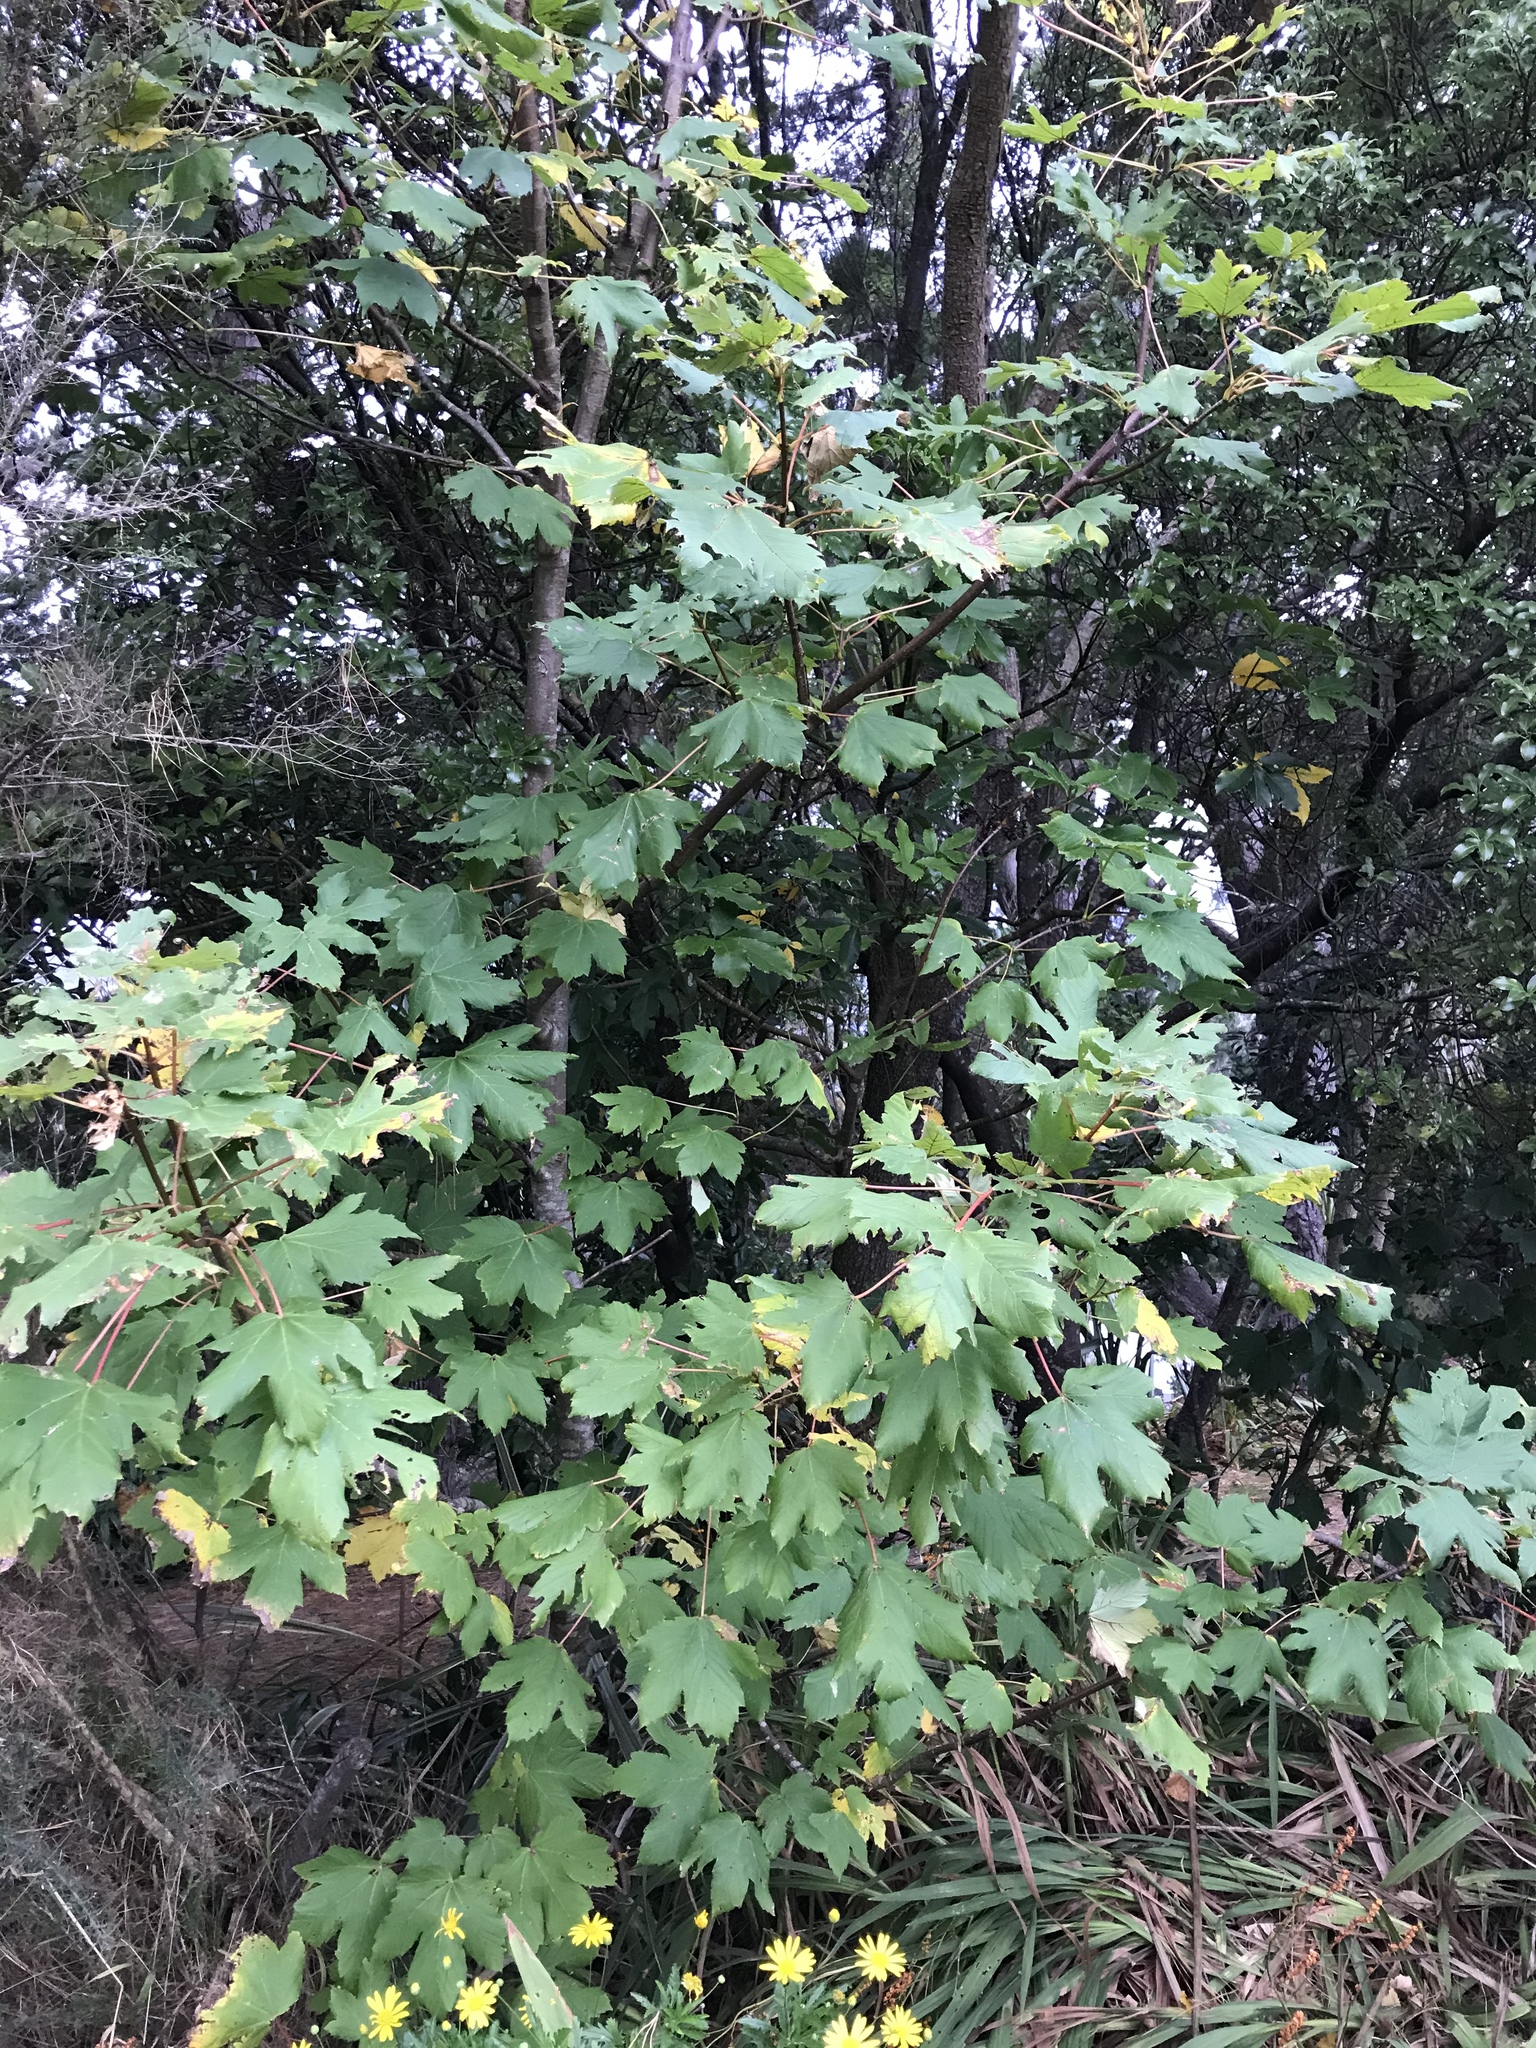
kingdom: Plantae
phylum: Tracheophyta
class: Magnoliopsida
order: Sapindales
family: Sapindaceae
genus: Acer
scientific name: Acer pseudoplatanus
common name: Sycamore
